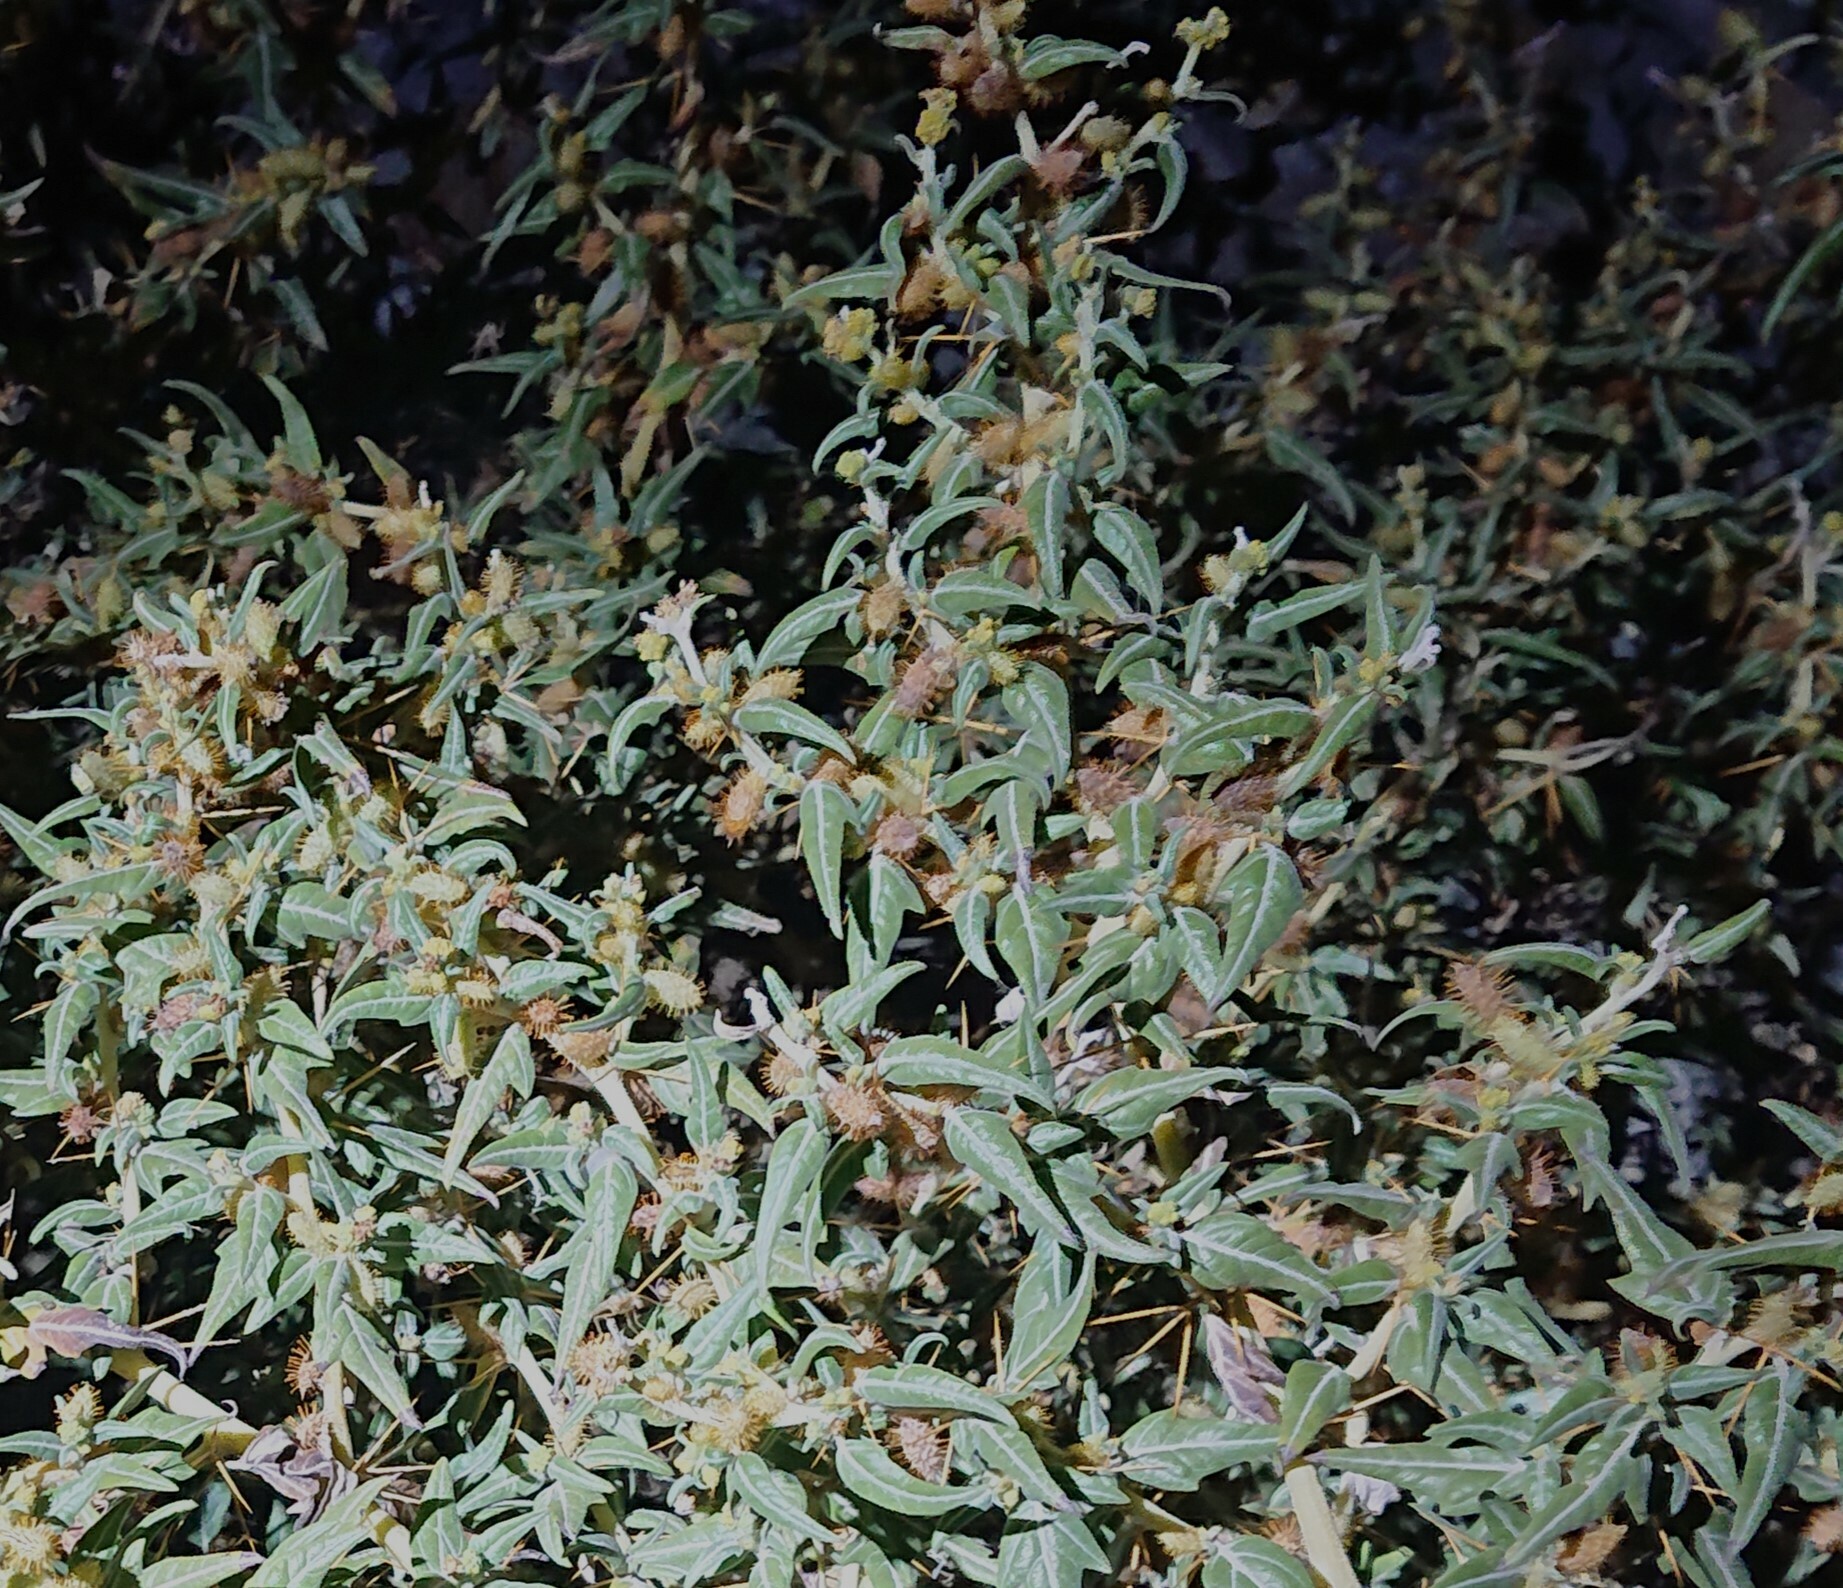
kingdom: Plantae
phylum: Tracheophyta
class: Magnoliopsida
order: Asterales
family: Asteraceae
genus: Xanthium
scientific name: Xanthium spinosum
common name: Spiny cocklebur
